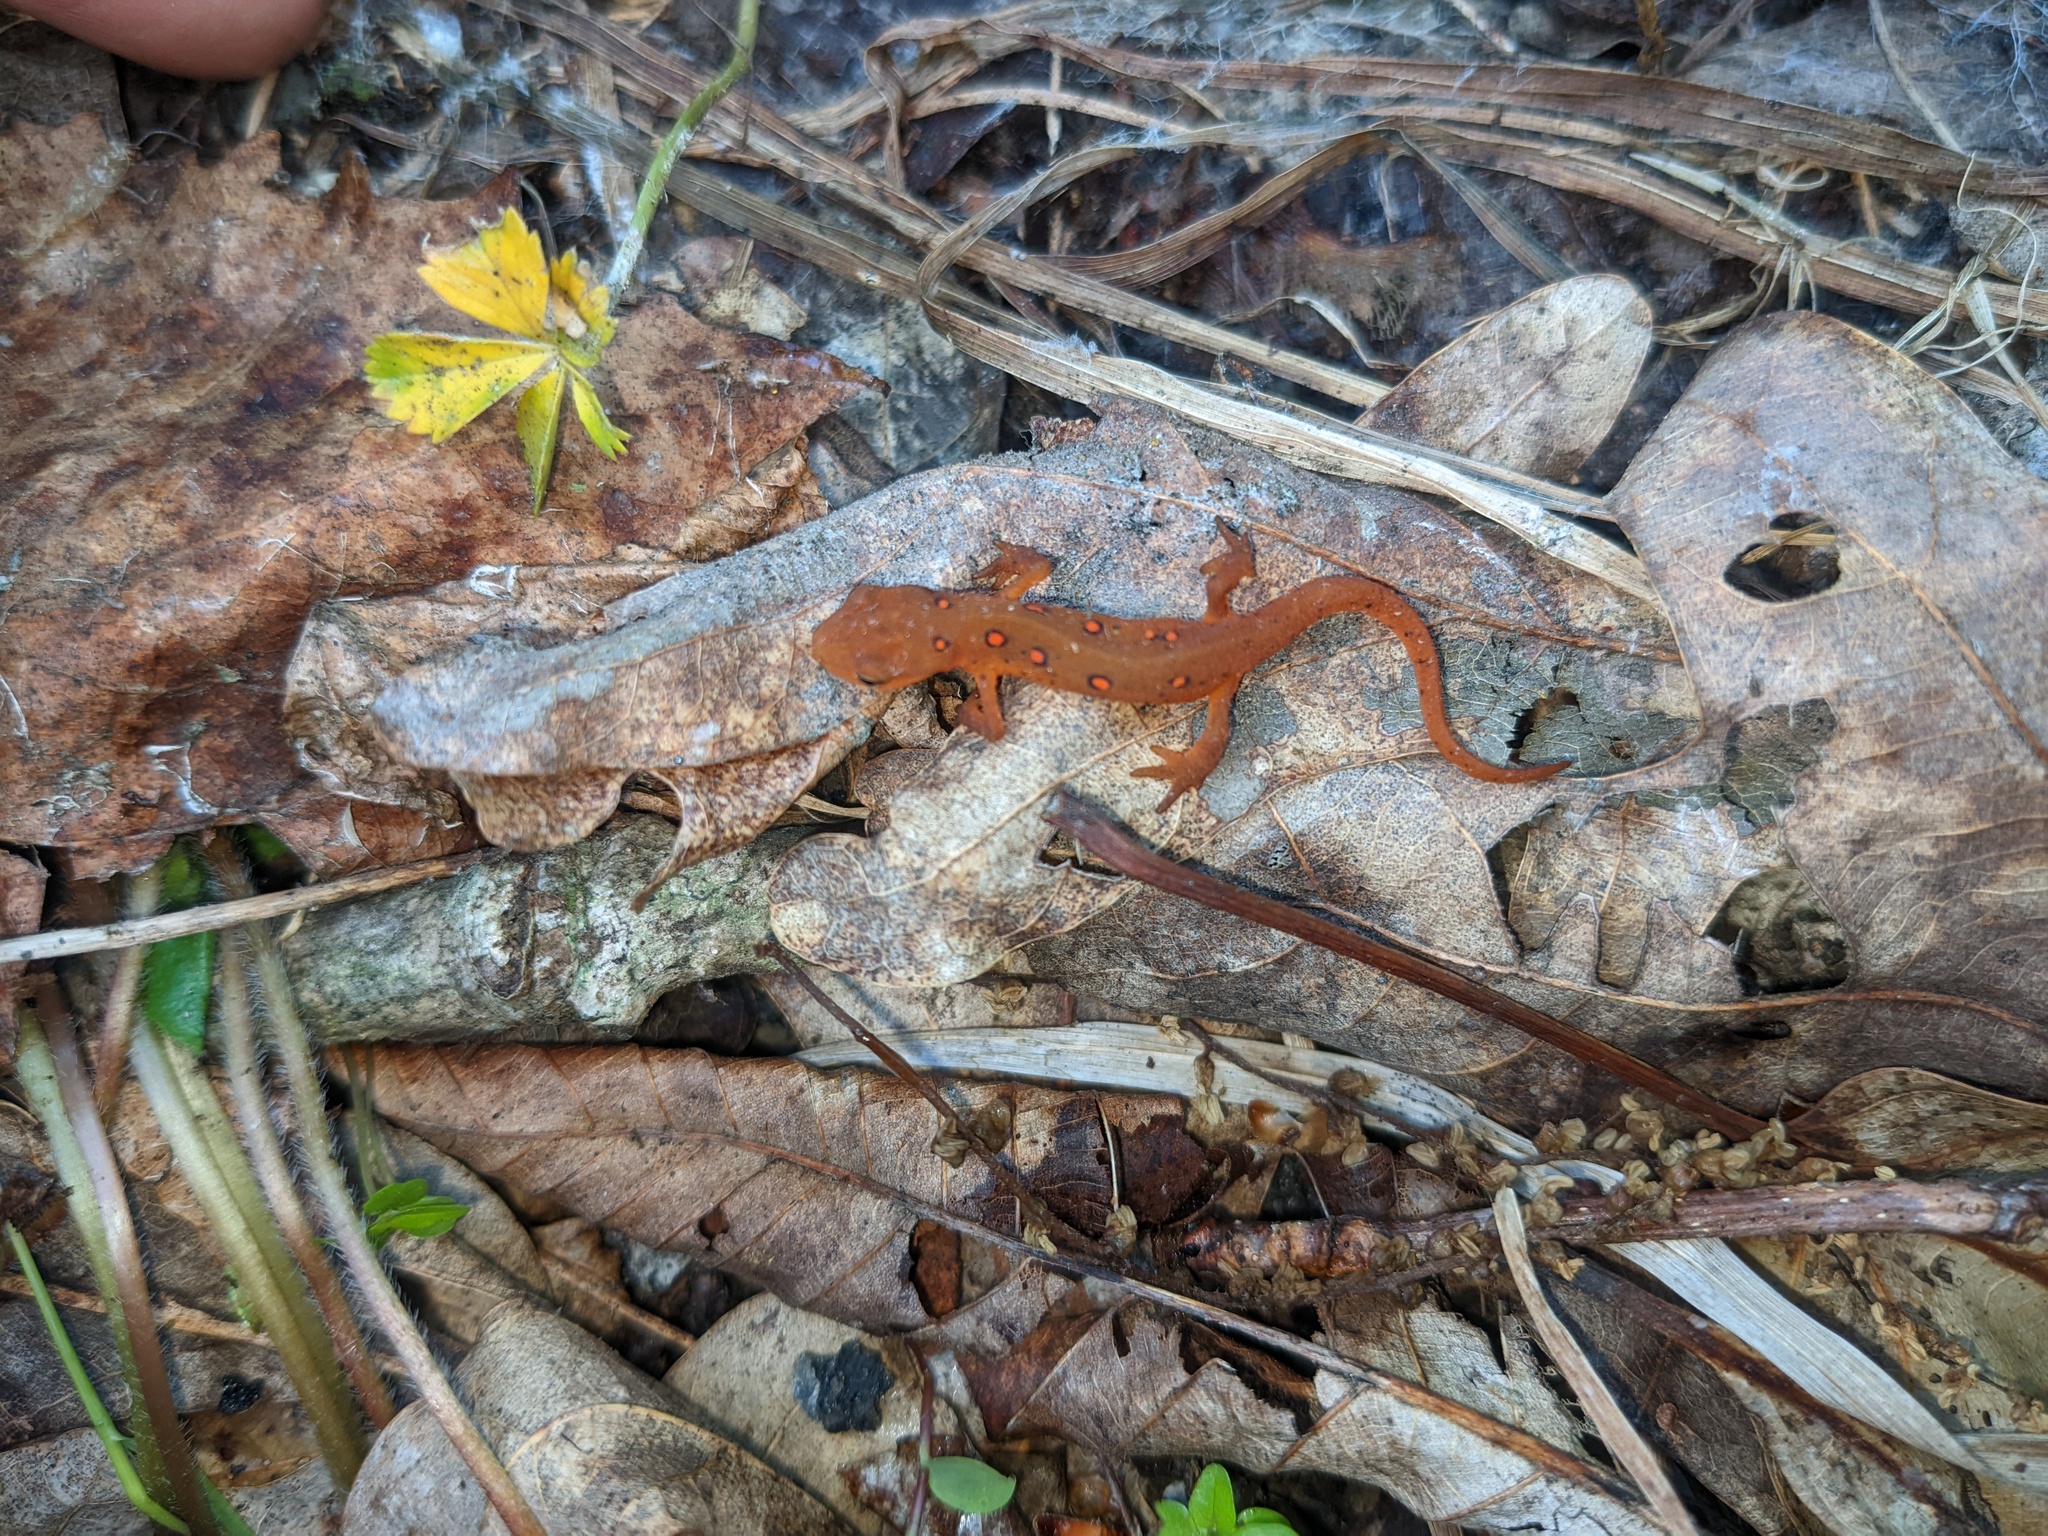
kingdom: Animalia
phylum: Chordata
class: Amphibia
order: Caudata
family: Salamandridae
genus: Notophthalmus
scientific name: Notophthalmus viridescens
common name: Eastern newt
